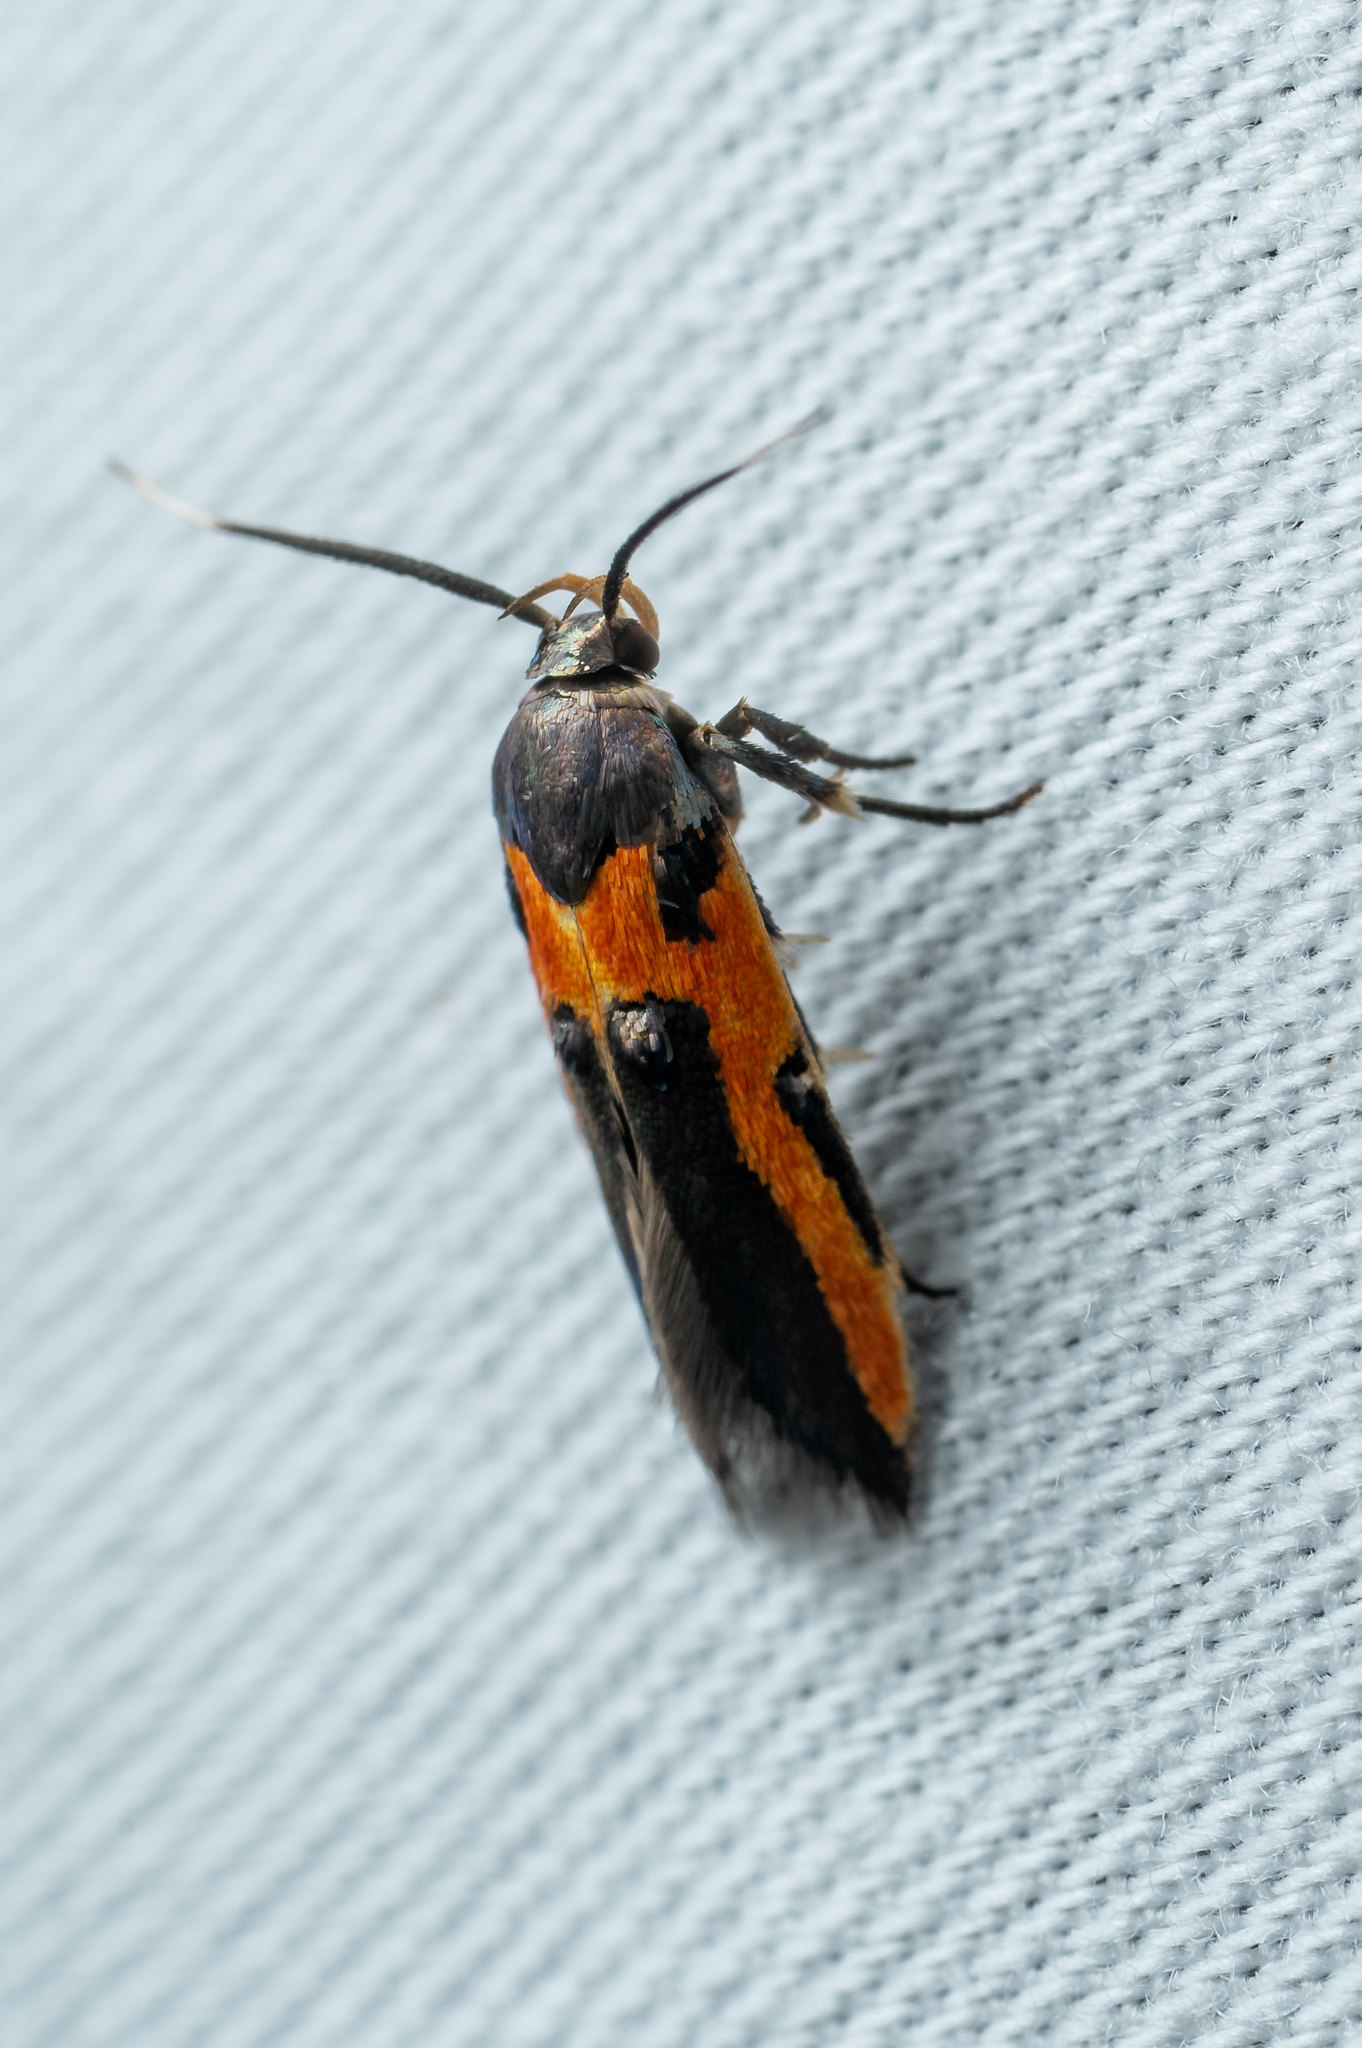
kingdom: Animalia
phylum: Arthropoda
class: Insecta
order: Lepidoptera
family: Cosmopterigidae
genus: Euclemensia
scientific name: Euclemensia bassettella
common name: Kermes scale moth
